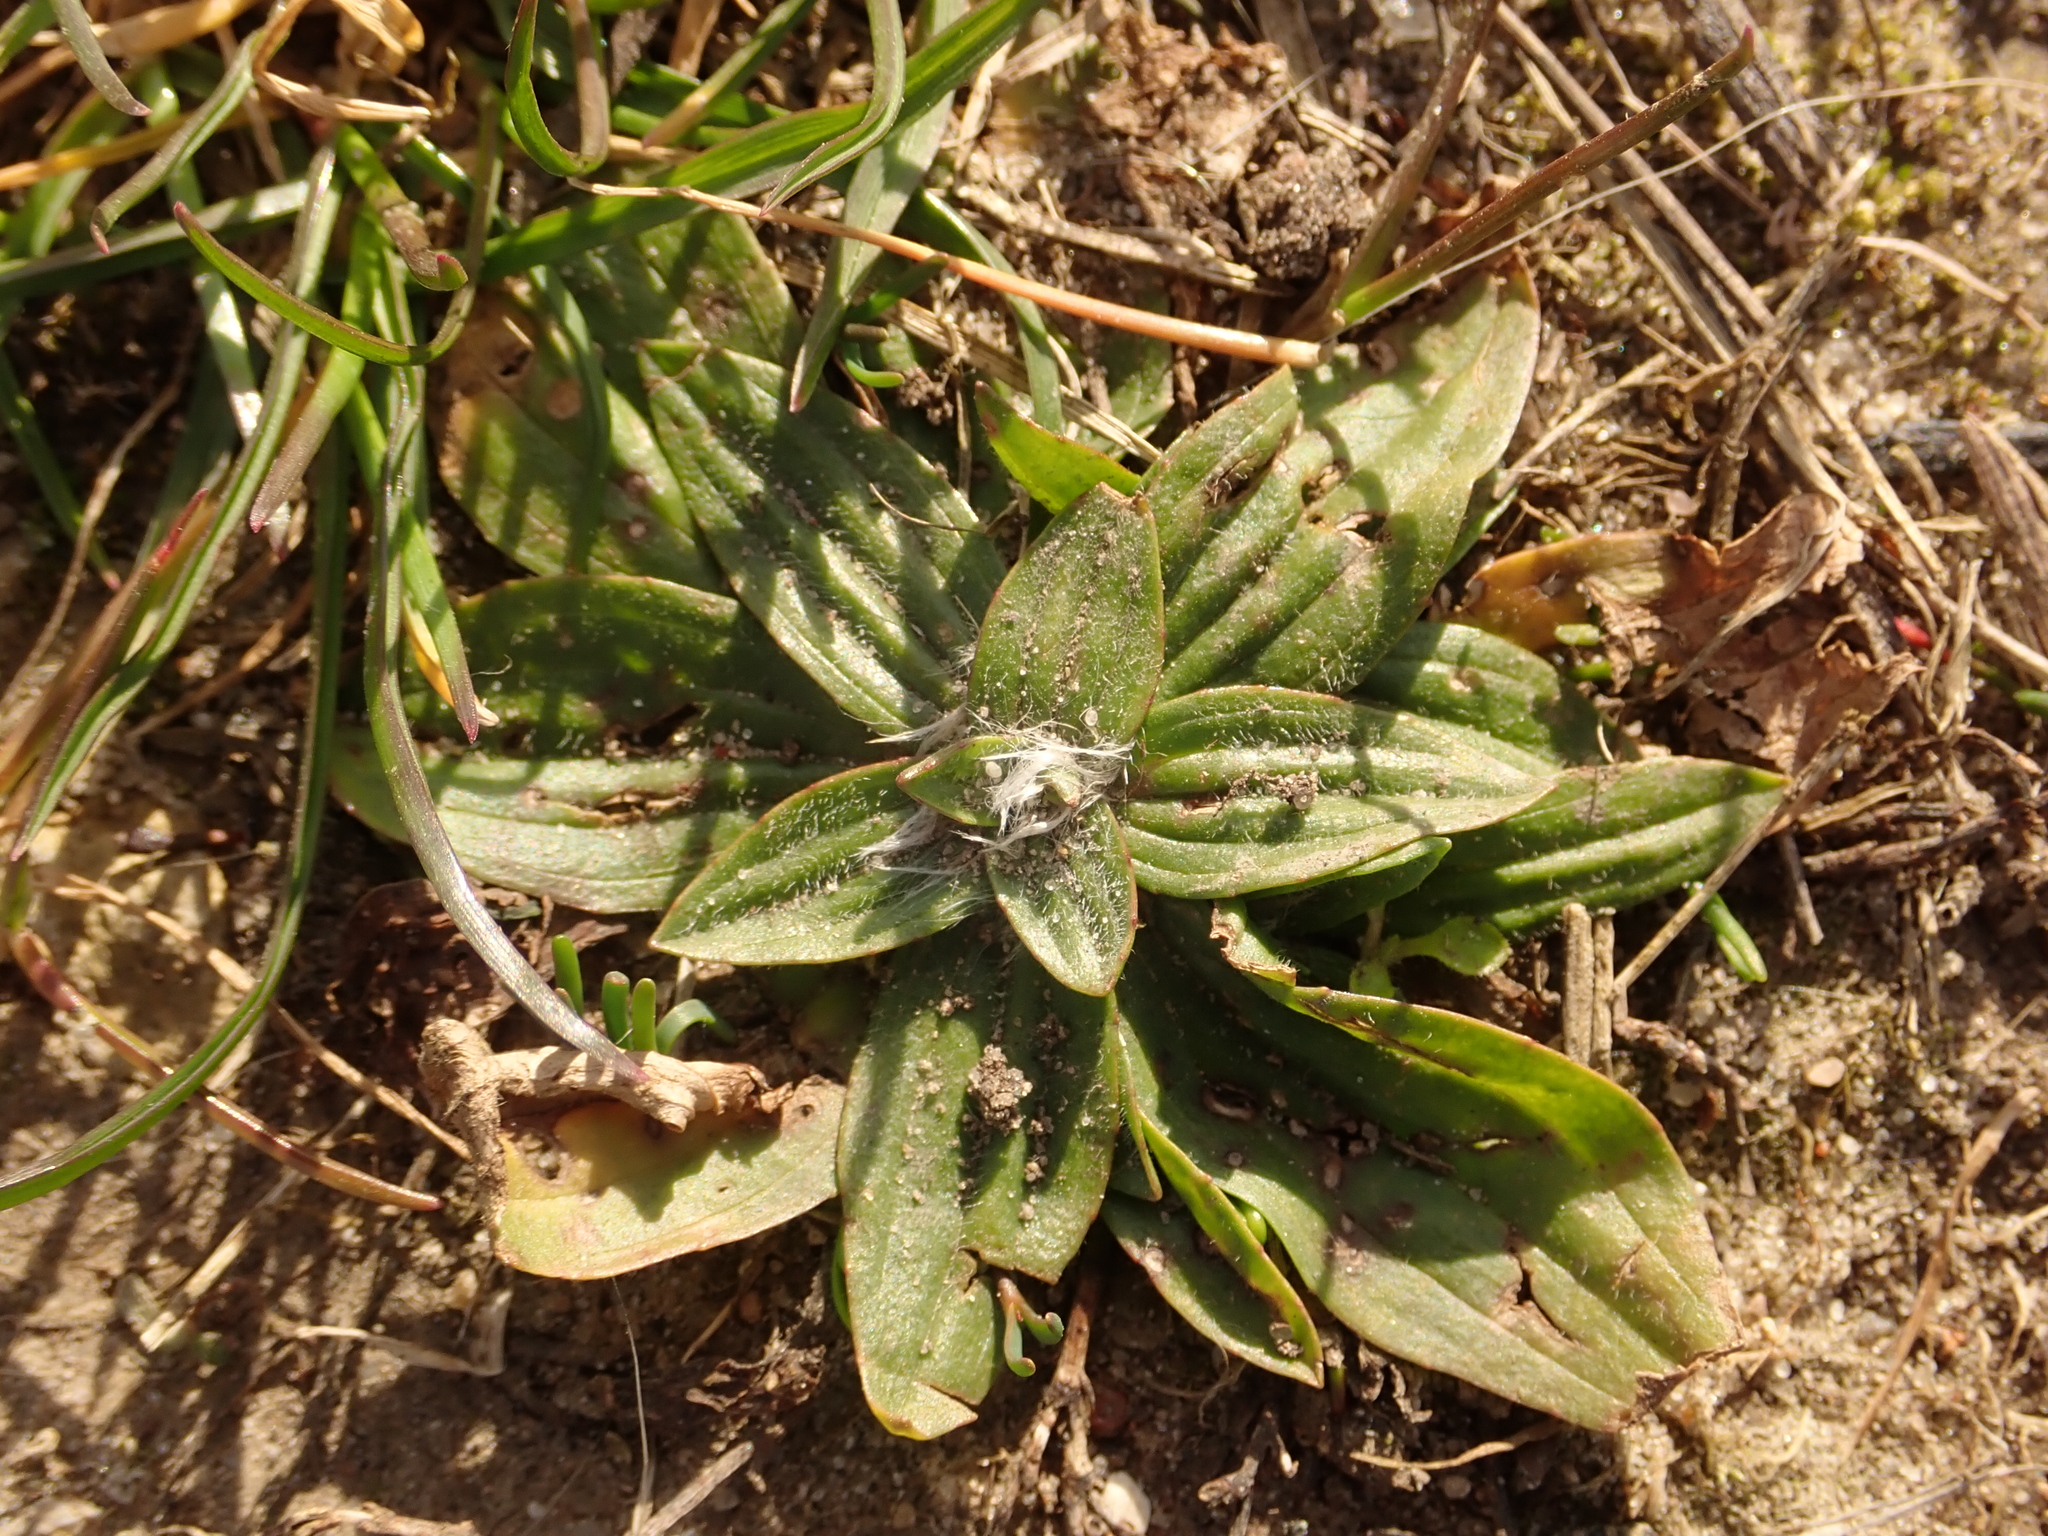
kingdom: Plantae
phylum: Tracheophyta
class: Magnoliopsida
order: Lamiales
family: Plantaginaceae
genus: Plantago
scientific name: Plantago media
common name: Hoary plantain
